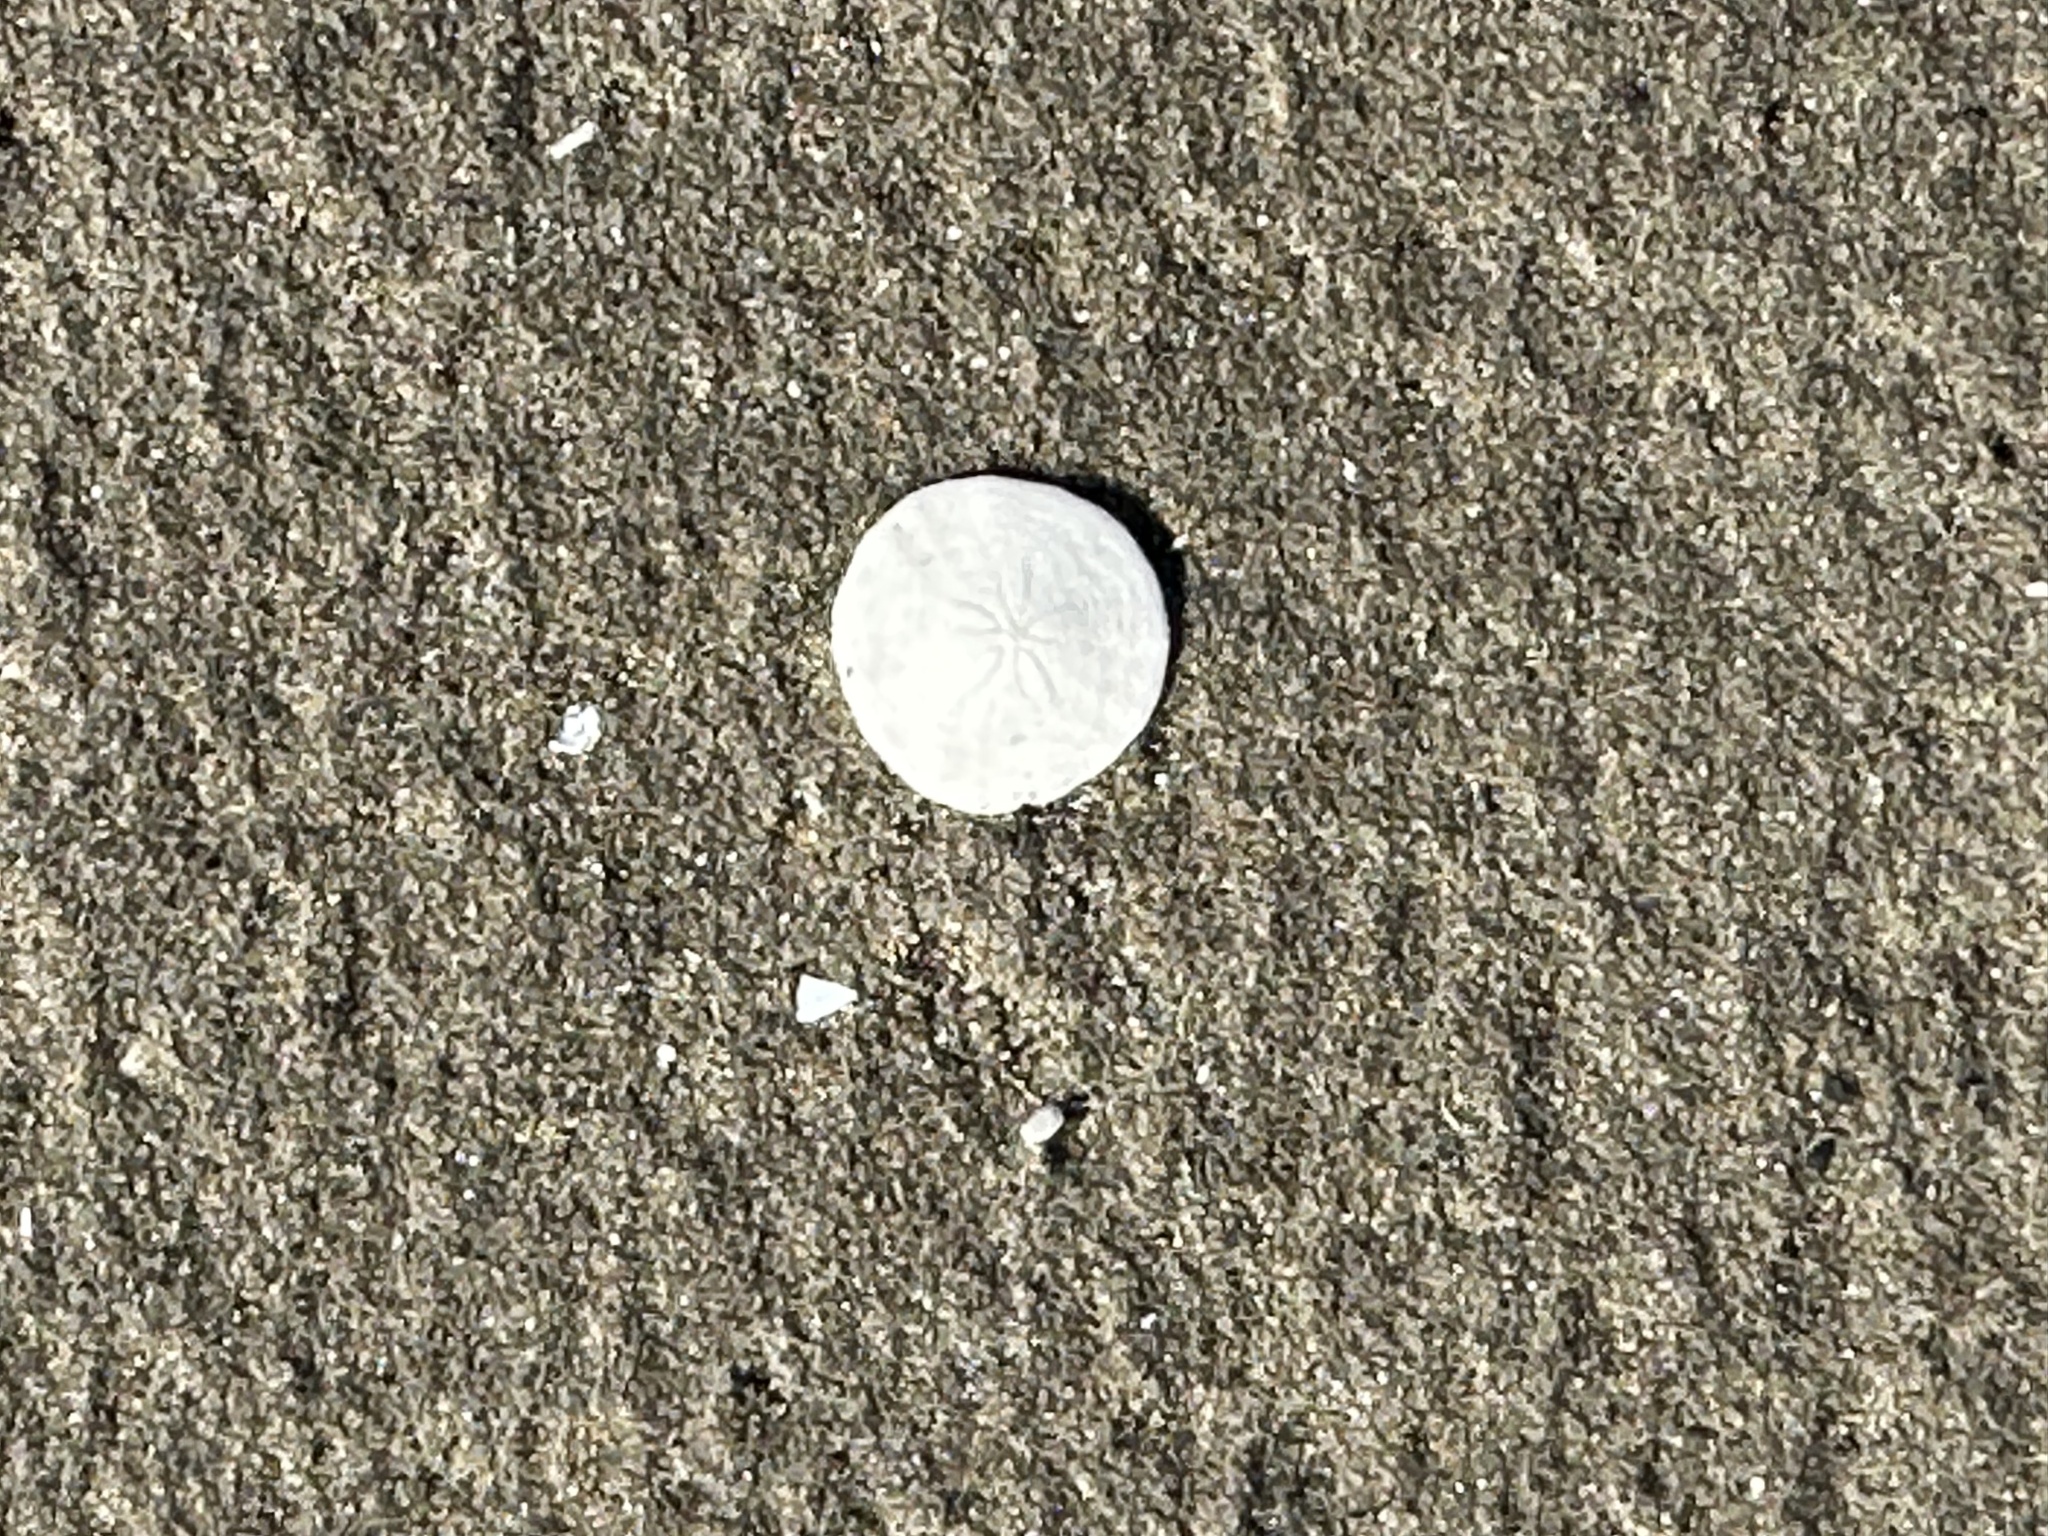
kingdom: Animalia
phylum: Echinodermata
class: Echinoidea
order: Echinolampadacea
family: Echinarachniidae
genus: Echinarachnius
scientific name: Echinarachnius parma
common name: Common sand dollar
